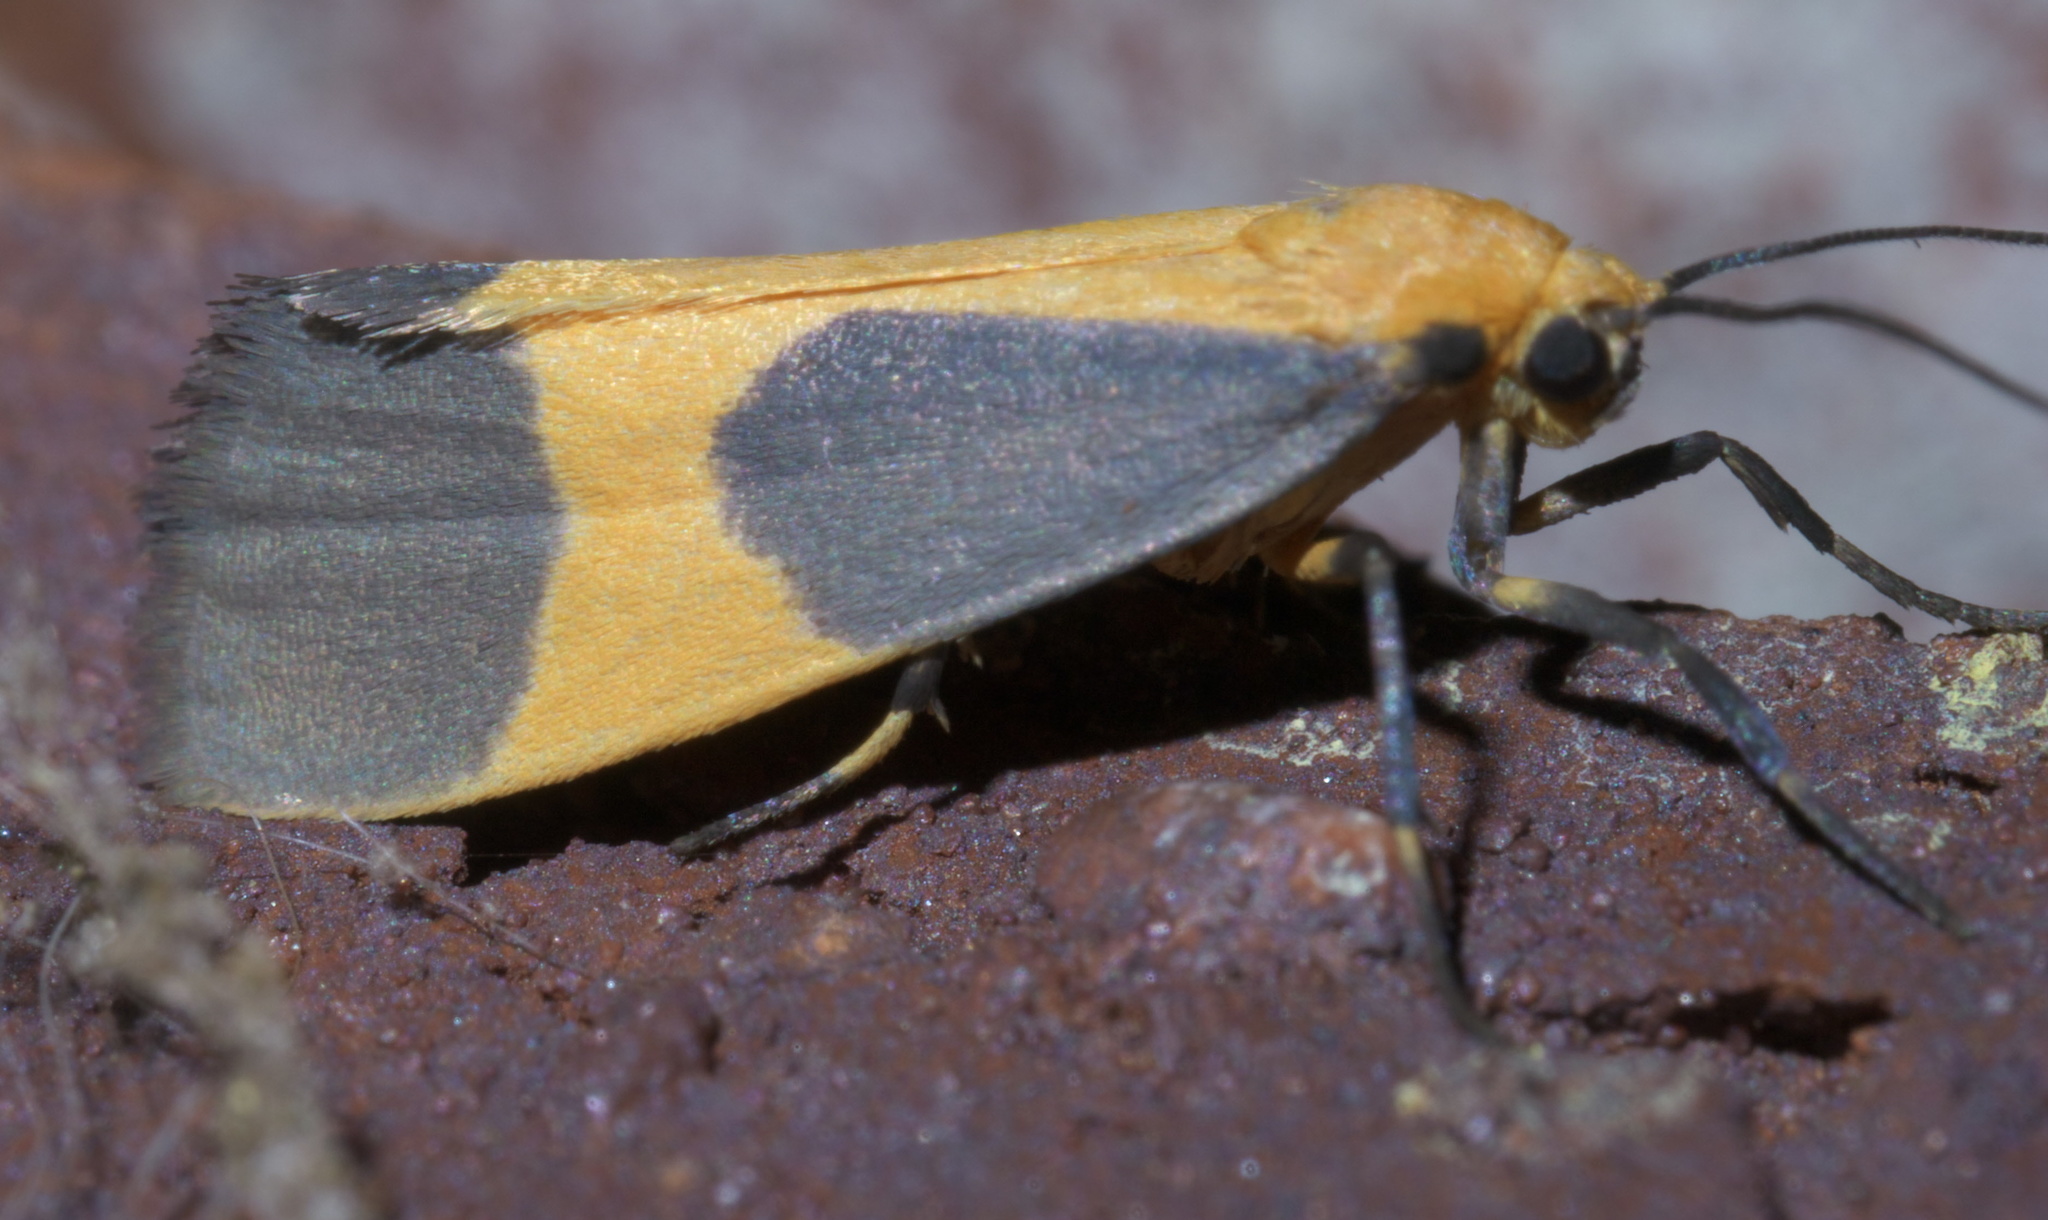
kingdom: Animalia
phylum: Arthropoda
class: Insecta
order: Lepidoptera
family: Erebidae
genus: Cisthene
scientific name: Cisthene picta
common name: Pictured lichen moth
